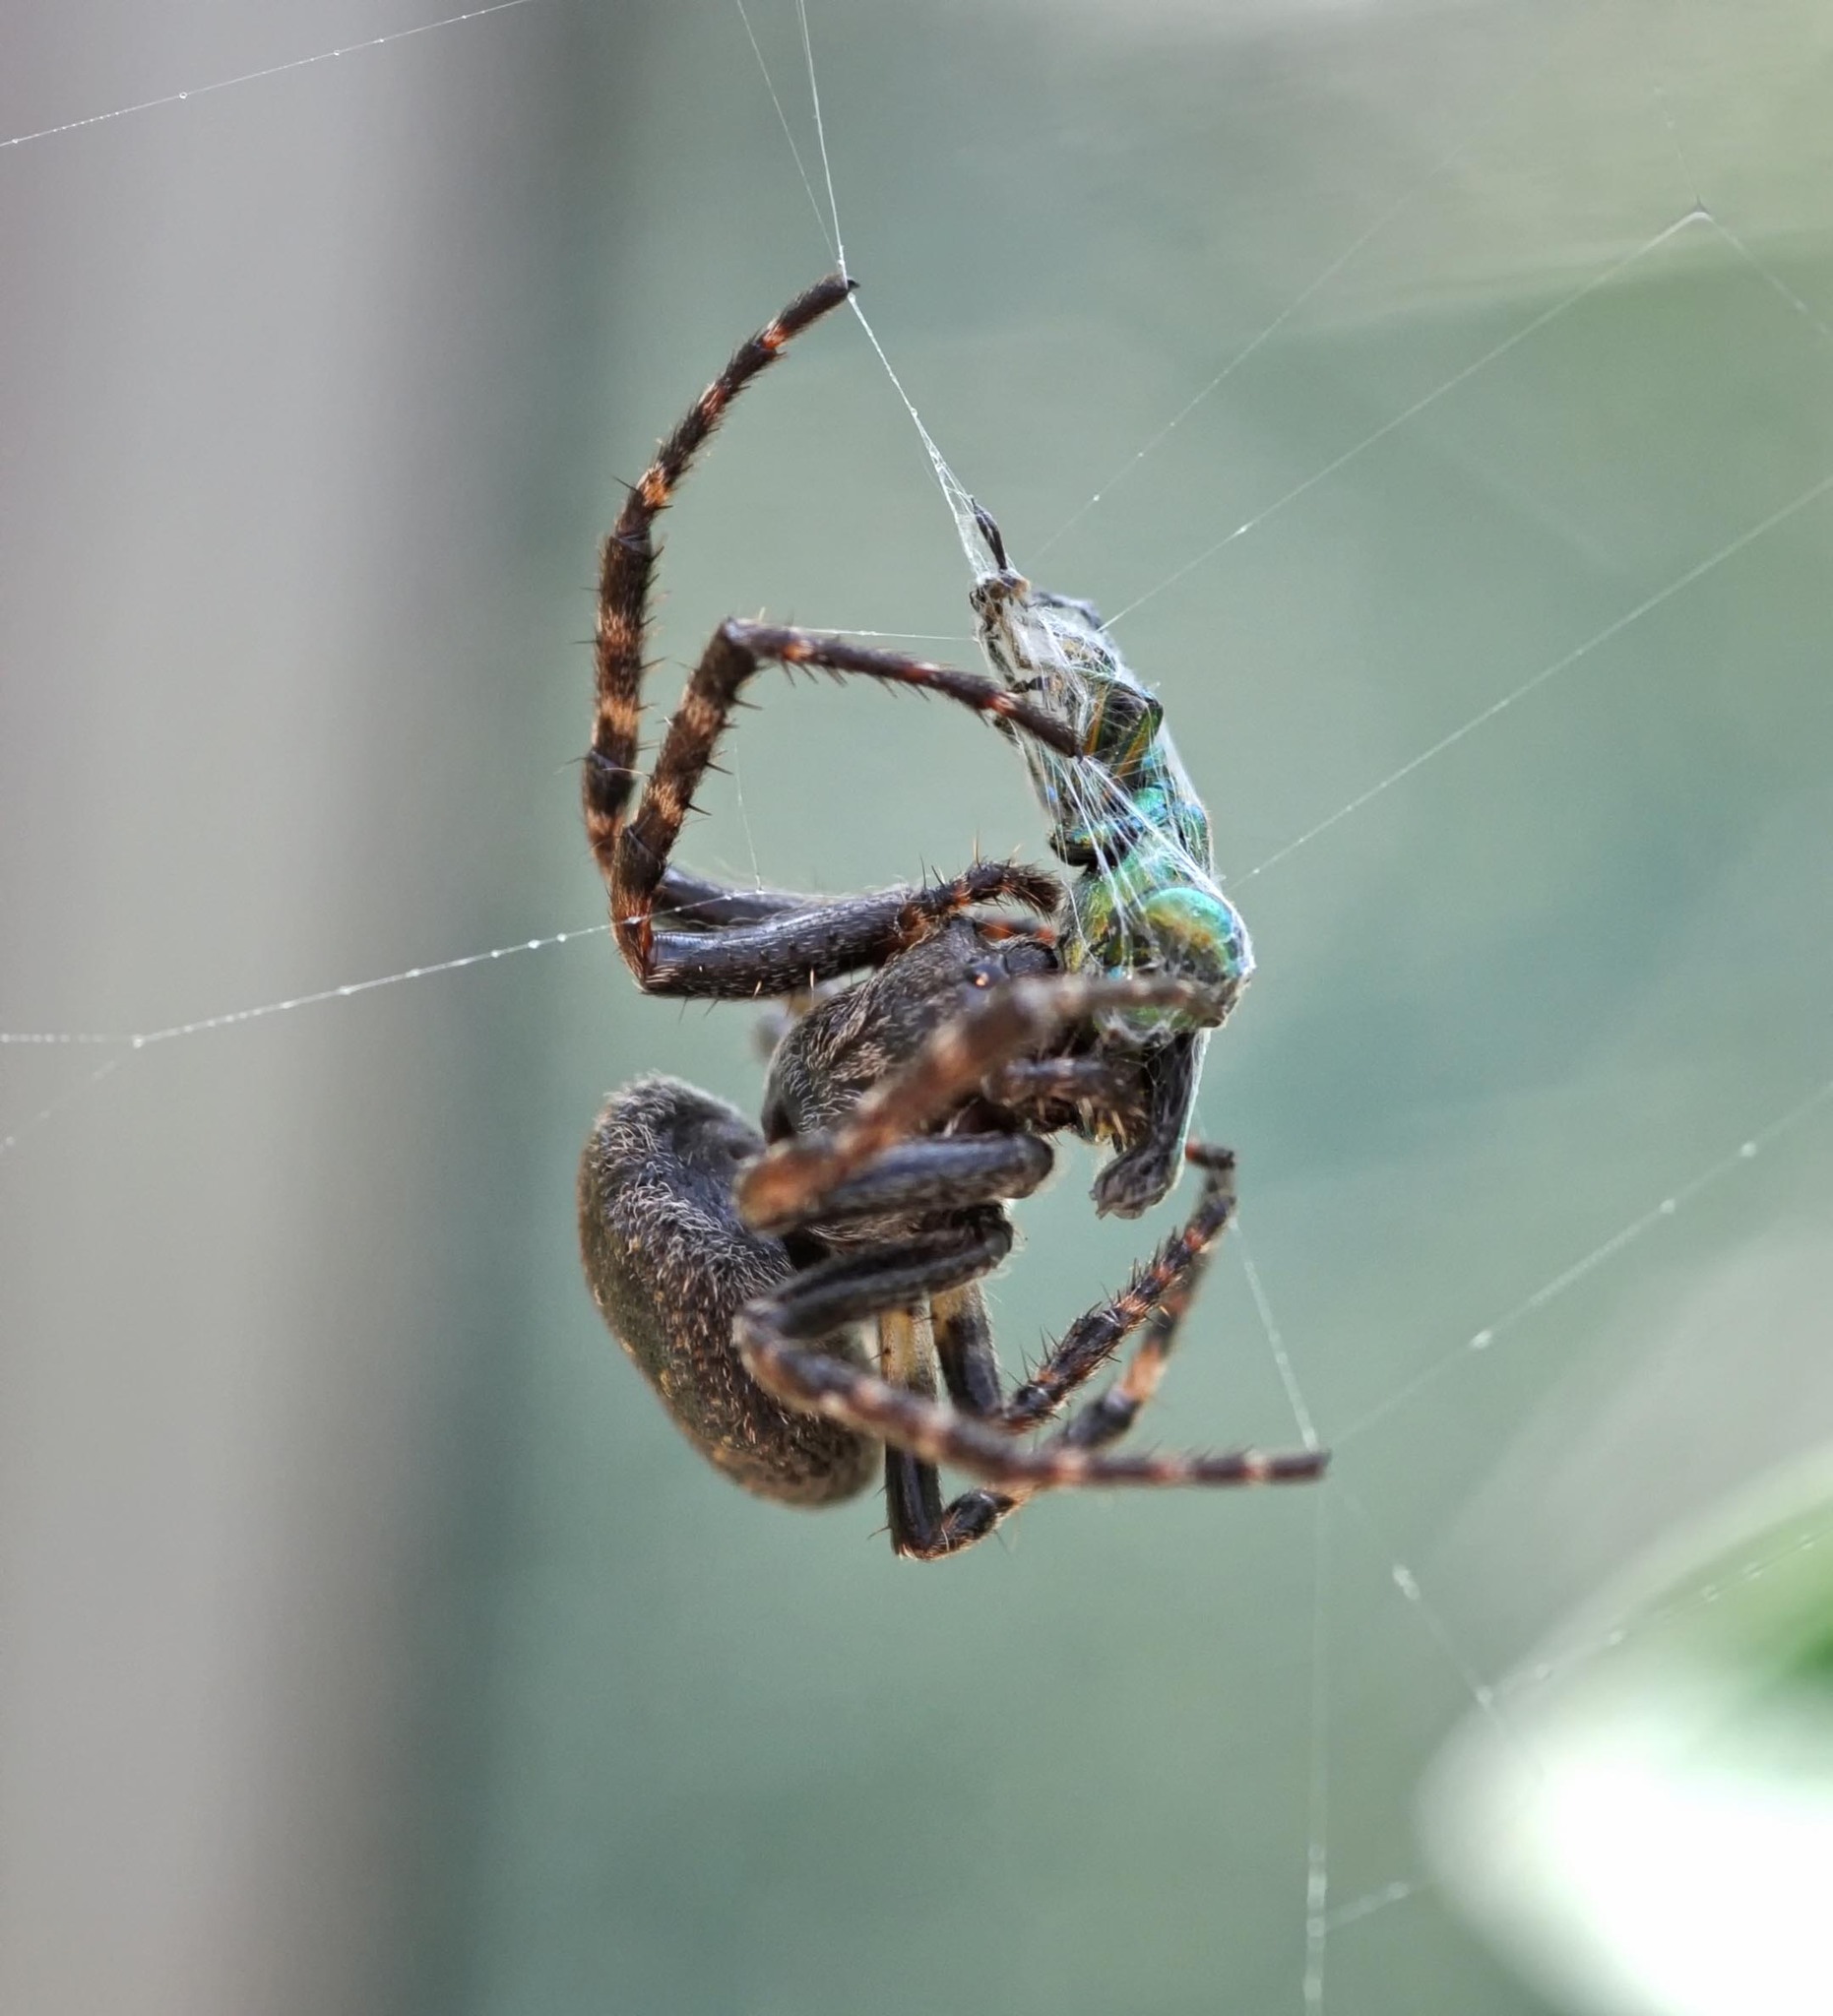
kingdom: Animalia
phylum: Arthropoda
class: Arachnida
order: Araneae
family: Araneidae
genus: Nuctenea
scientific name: Nuctenea umbratica
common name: Toad spider
